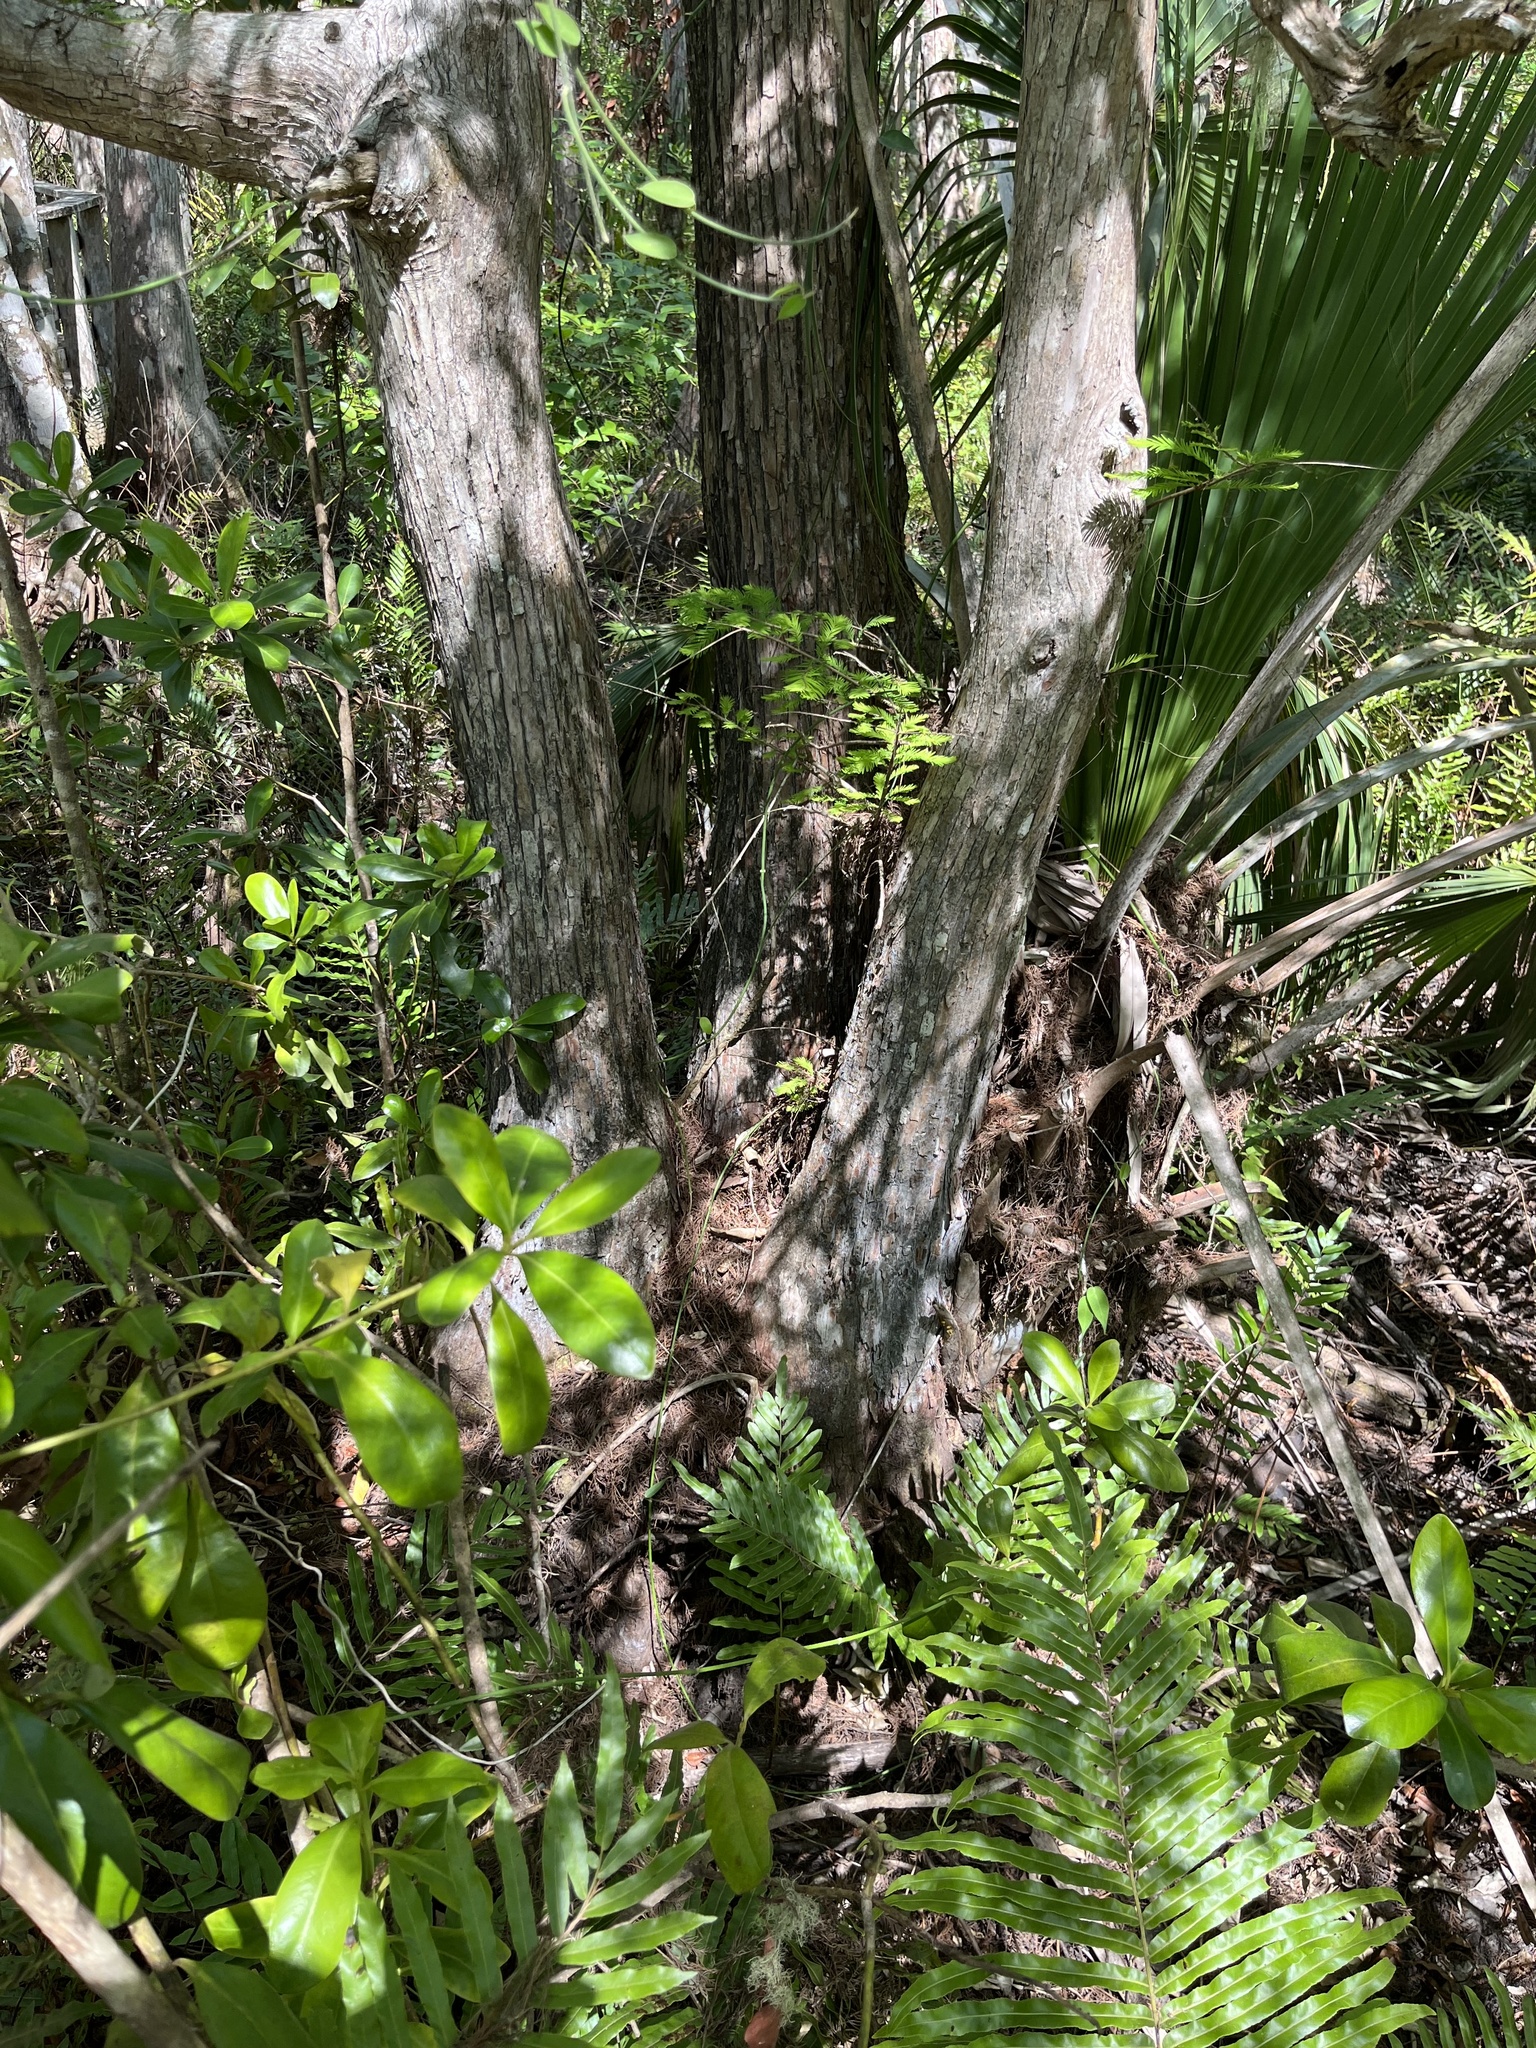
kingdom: Plantae
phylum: Tracheophyta
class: Pinopsida
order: Pinales
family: Cupressaceae
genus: Taxodium
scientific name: Taxodium distichum
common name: Bald cypress
